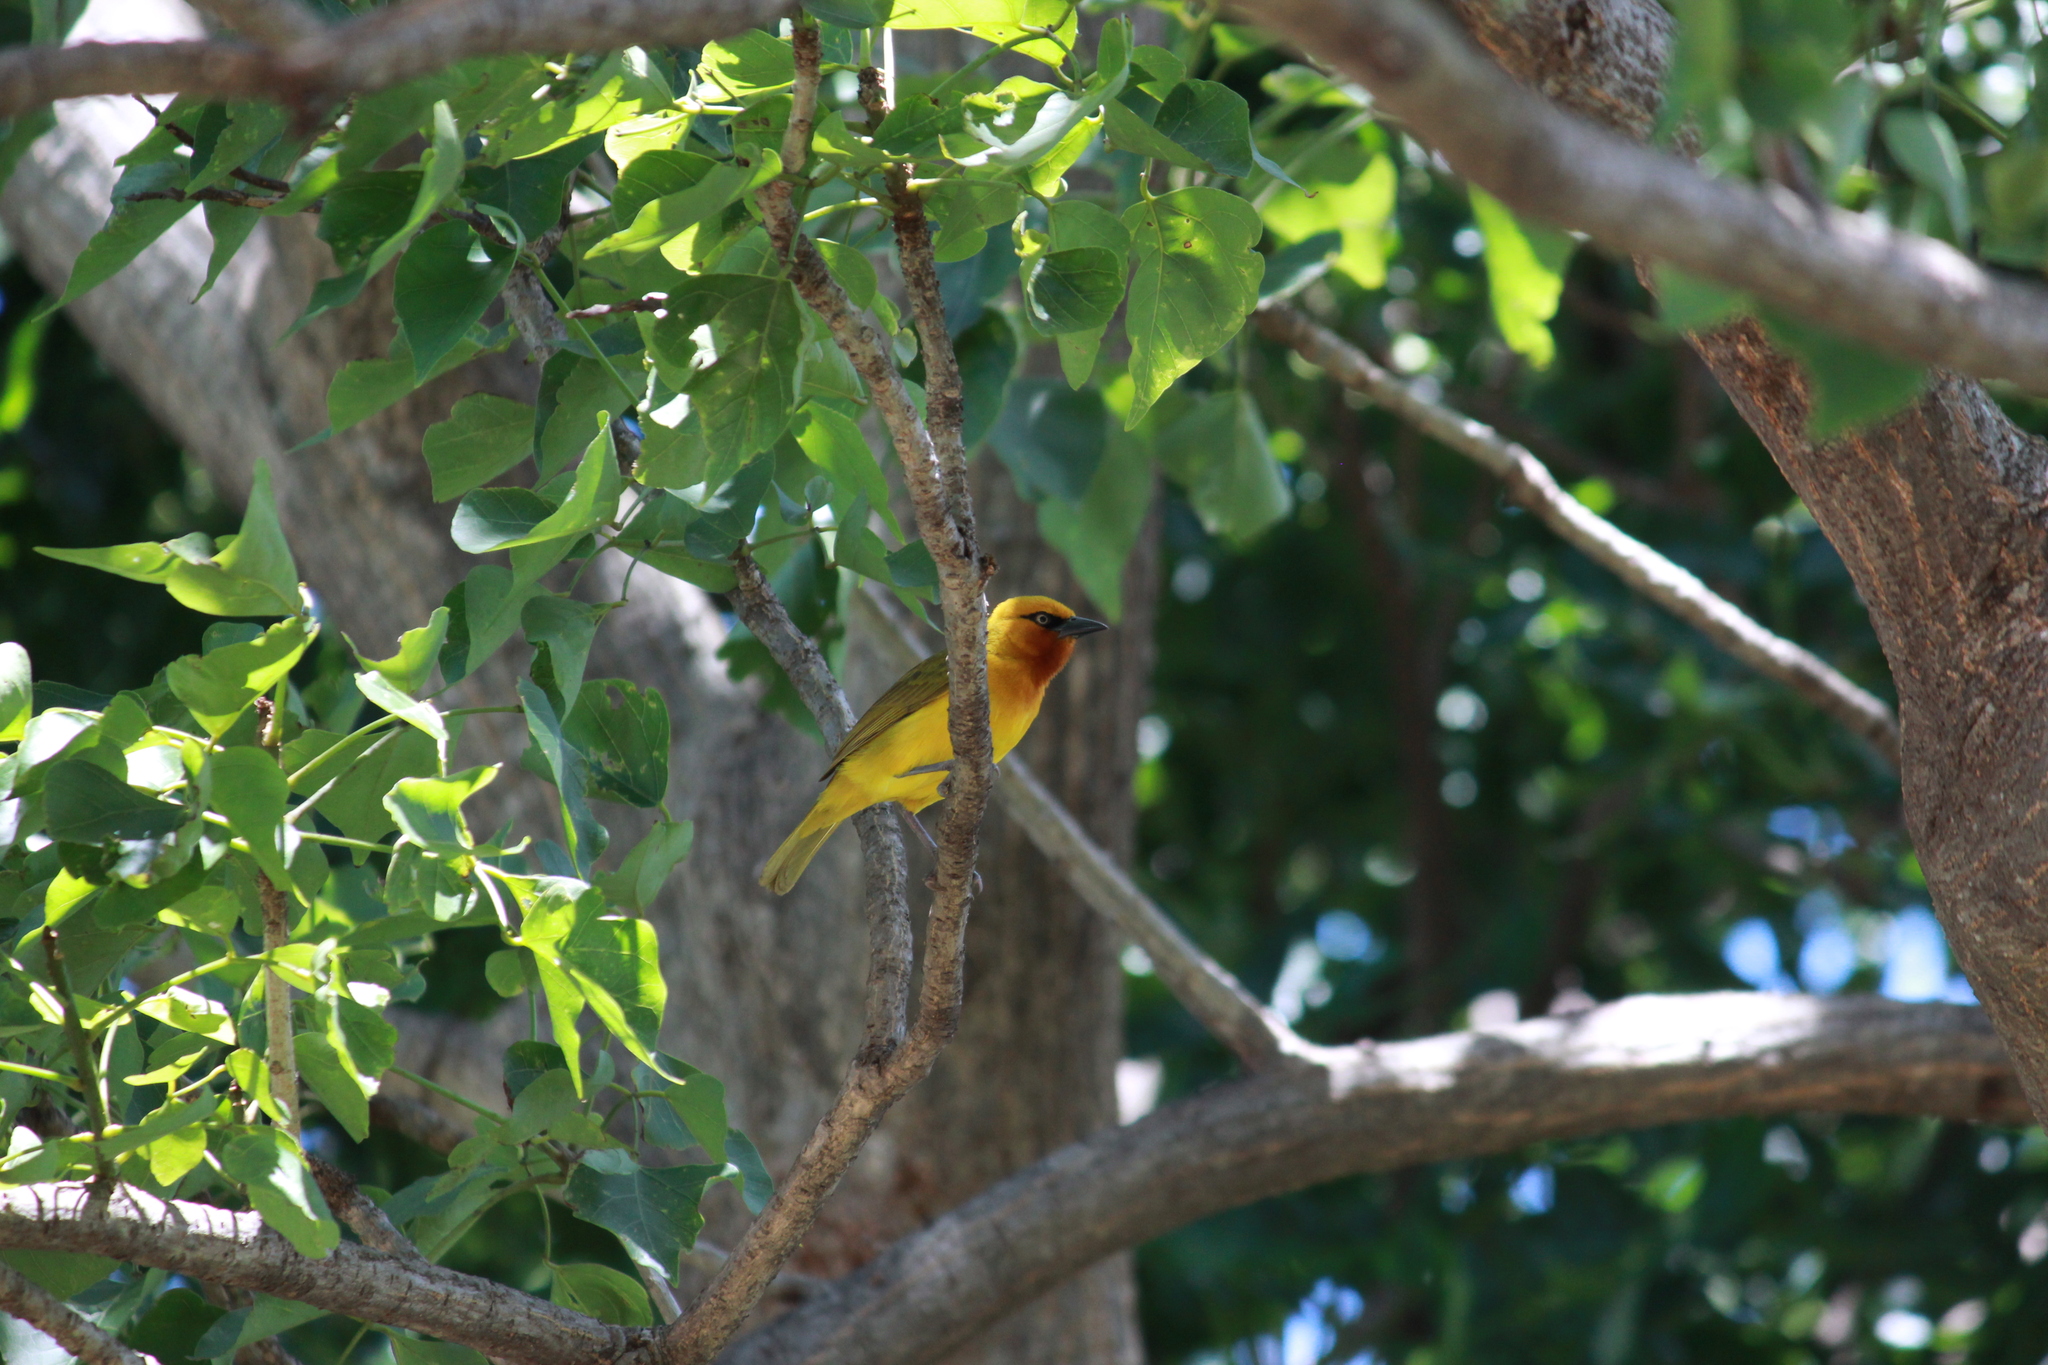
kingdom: Animalia
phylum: Chordata
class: Aves
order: Passeriformes
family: Ploceidae
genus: Ploceus
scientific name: Ploceus ocularis
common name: Spectacled weaver
